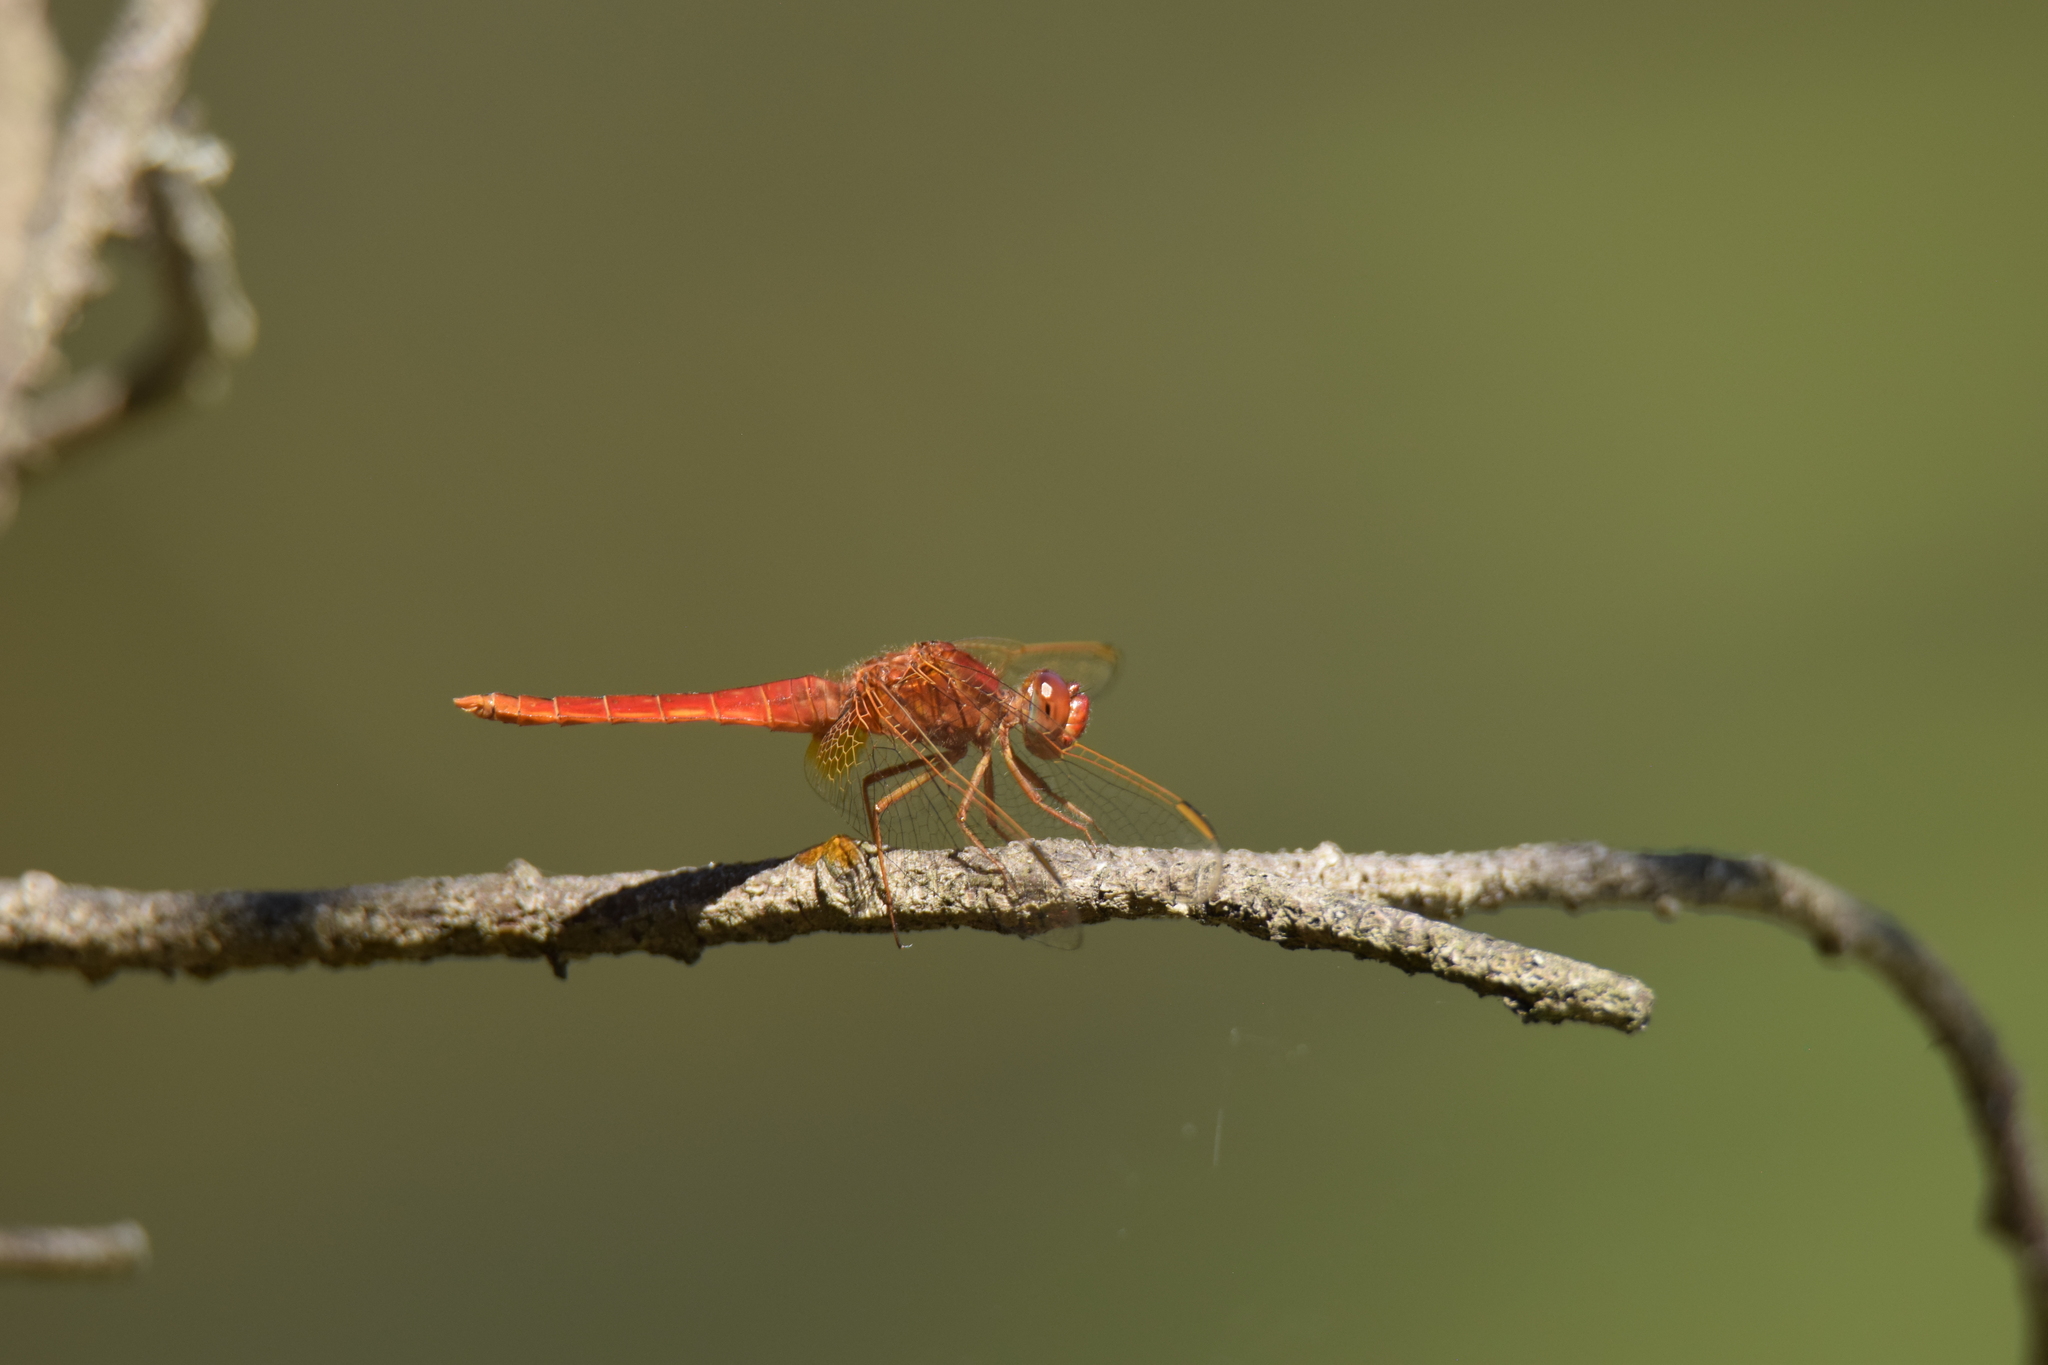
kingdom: Animalia
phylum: Arthropoda
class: Insecta
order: Odonata
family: Libellulidae
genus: Crocothemis
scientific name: Crocothemis erythraea
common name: Scarlet dragonfly
